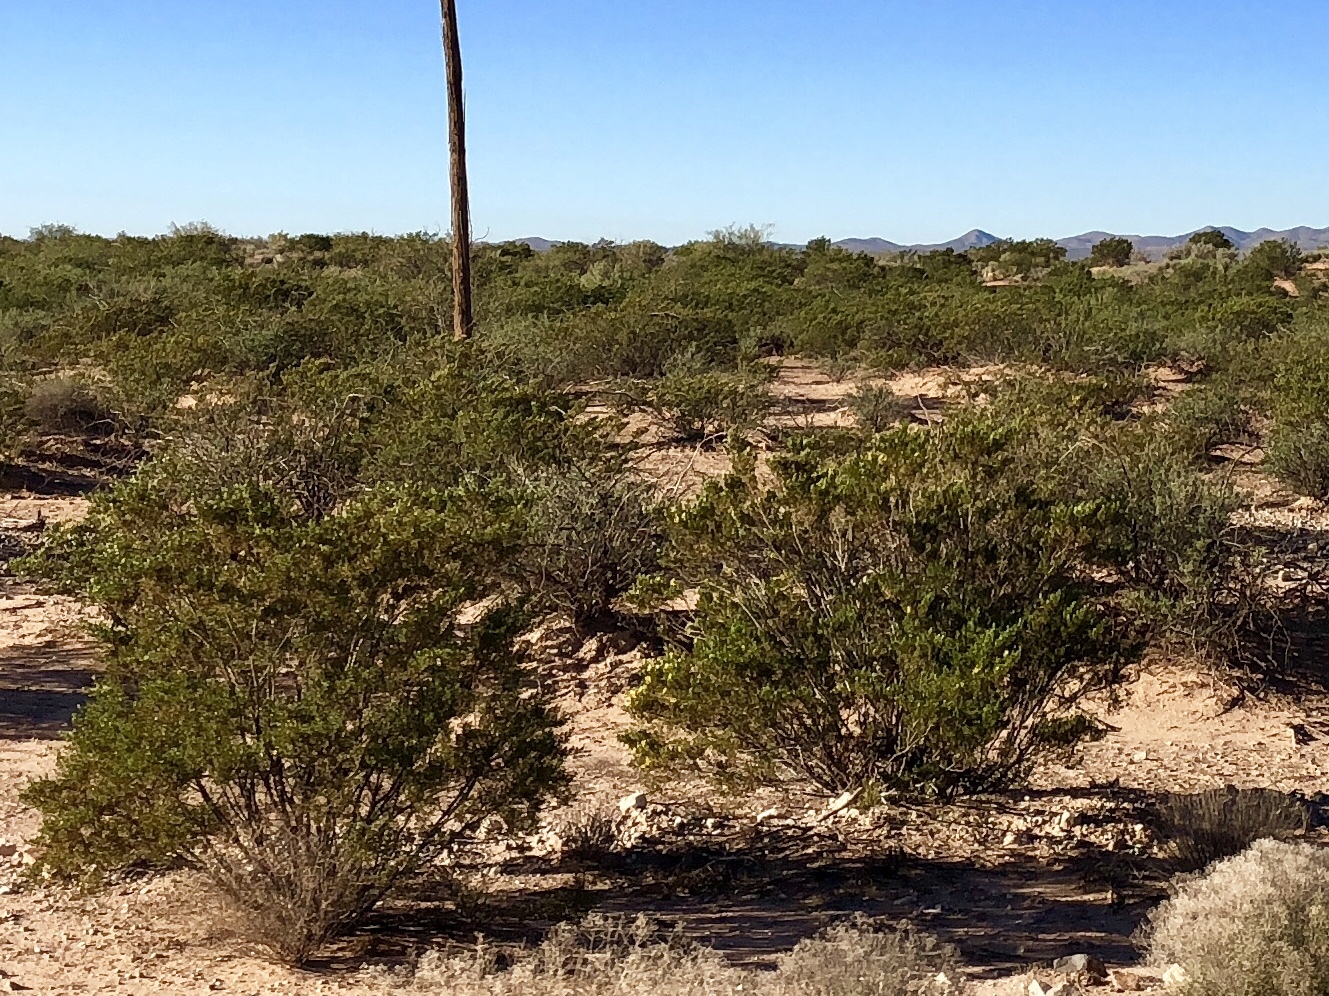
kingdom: Plantae
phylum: Tracheophyta
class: Magnoliopsida
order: Zygophyllales
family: Zygophyllaceae
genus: Larrea
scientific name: Larrea tridentata
